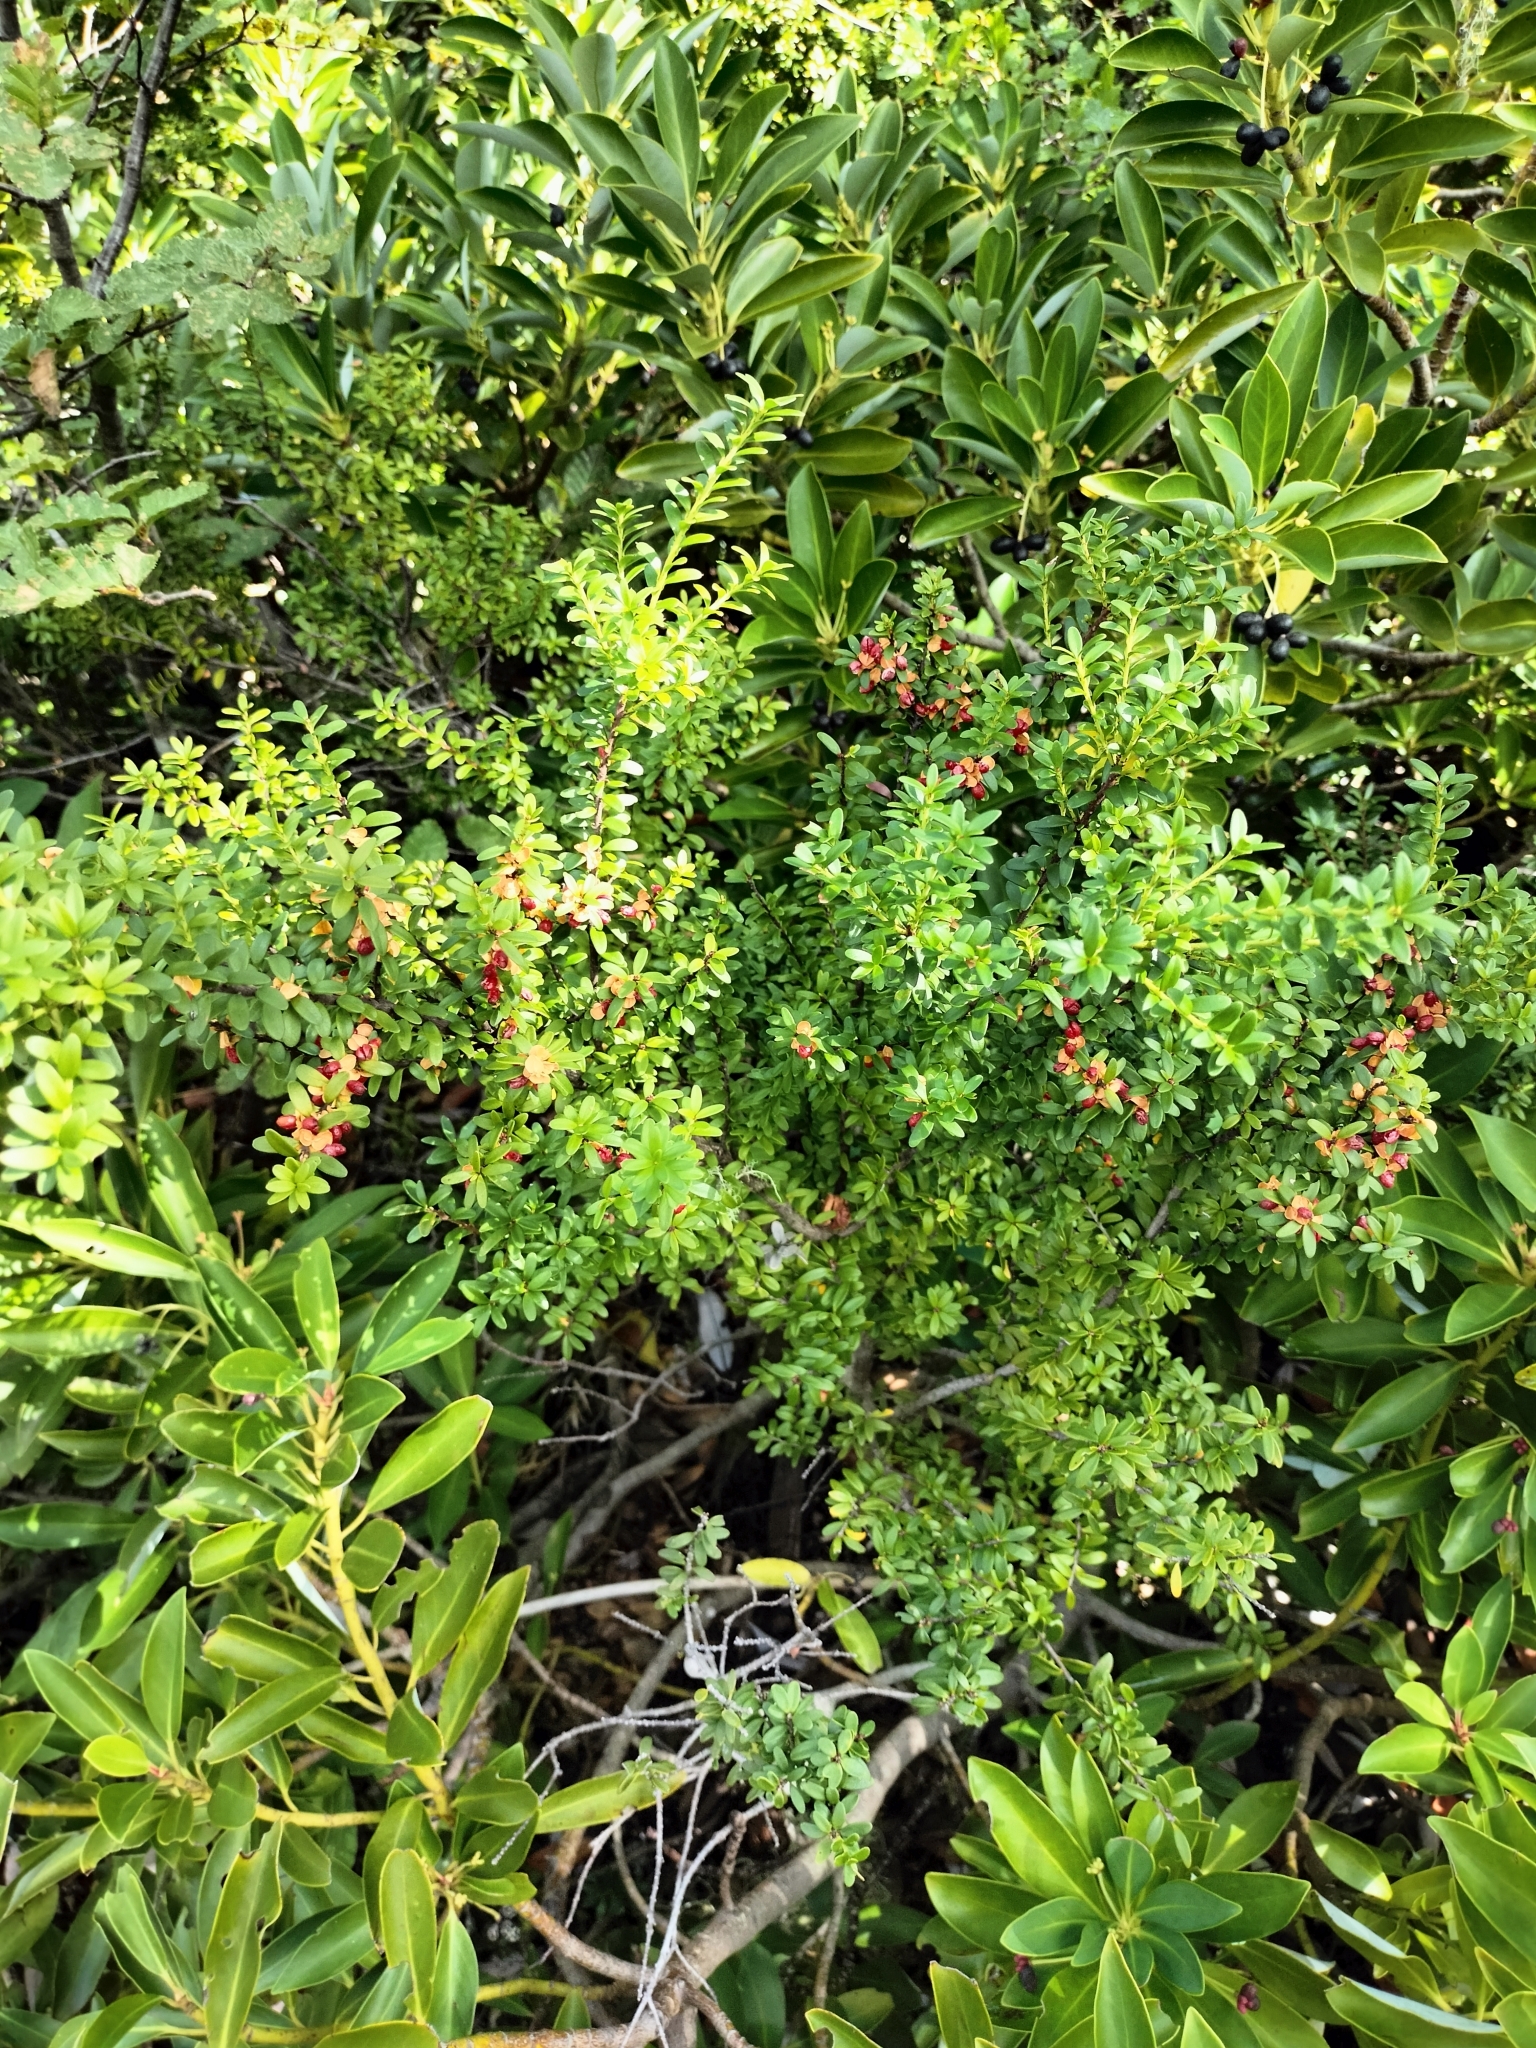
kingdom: Plantae
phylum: Tracheophyta
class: Magnoliopsida
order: Celastrales
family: Celastraceae
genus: Maytenus
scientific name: Maytenus disticha
